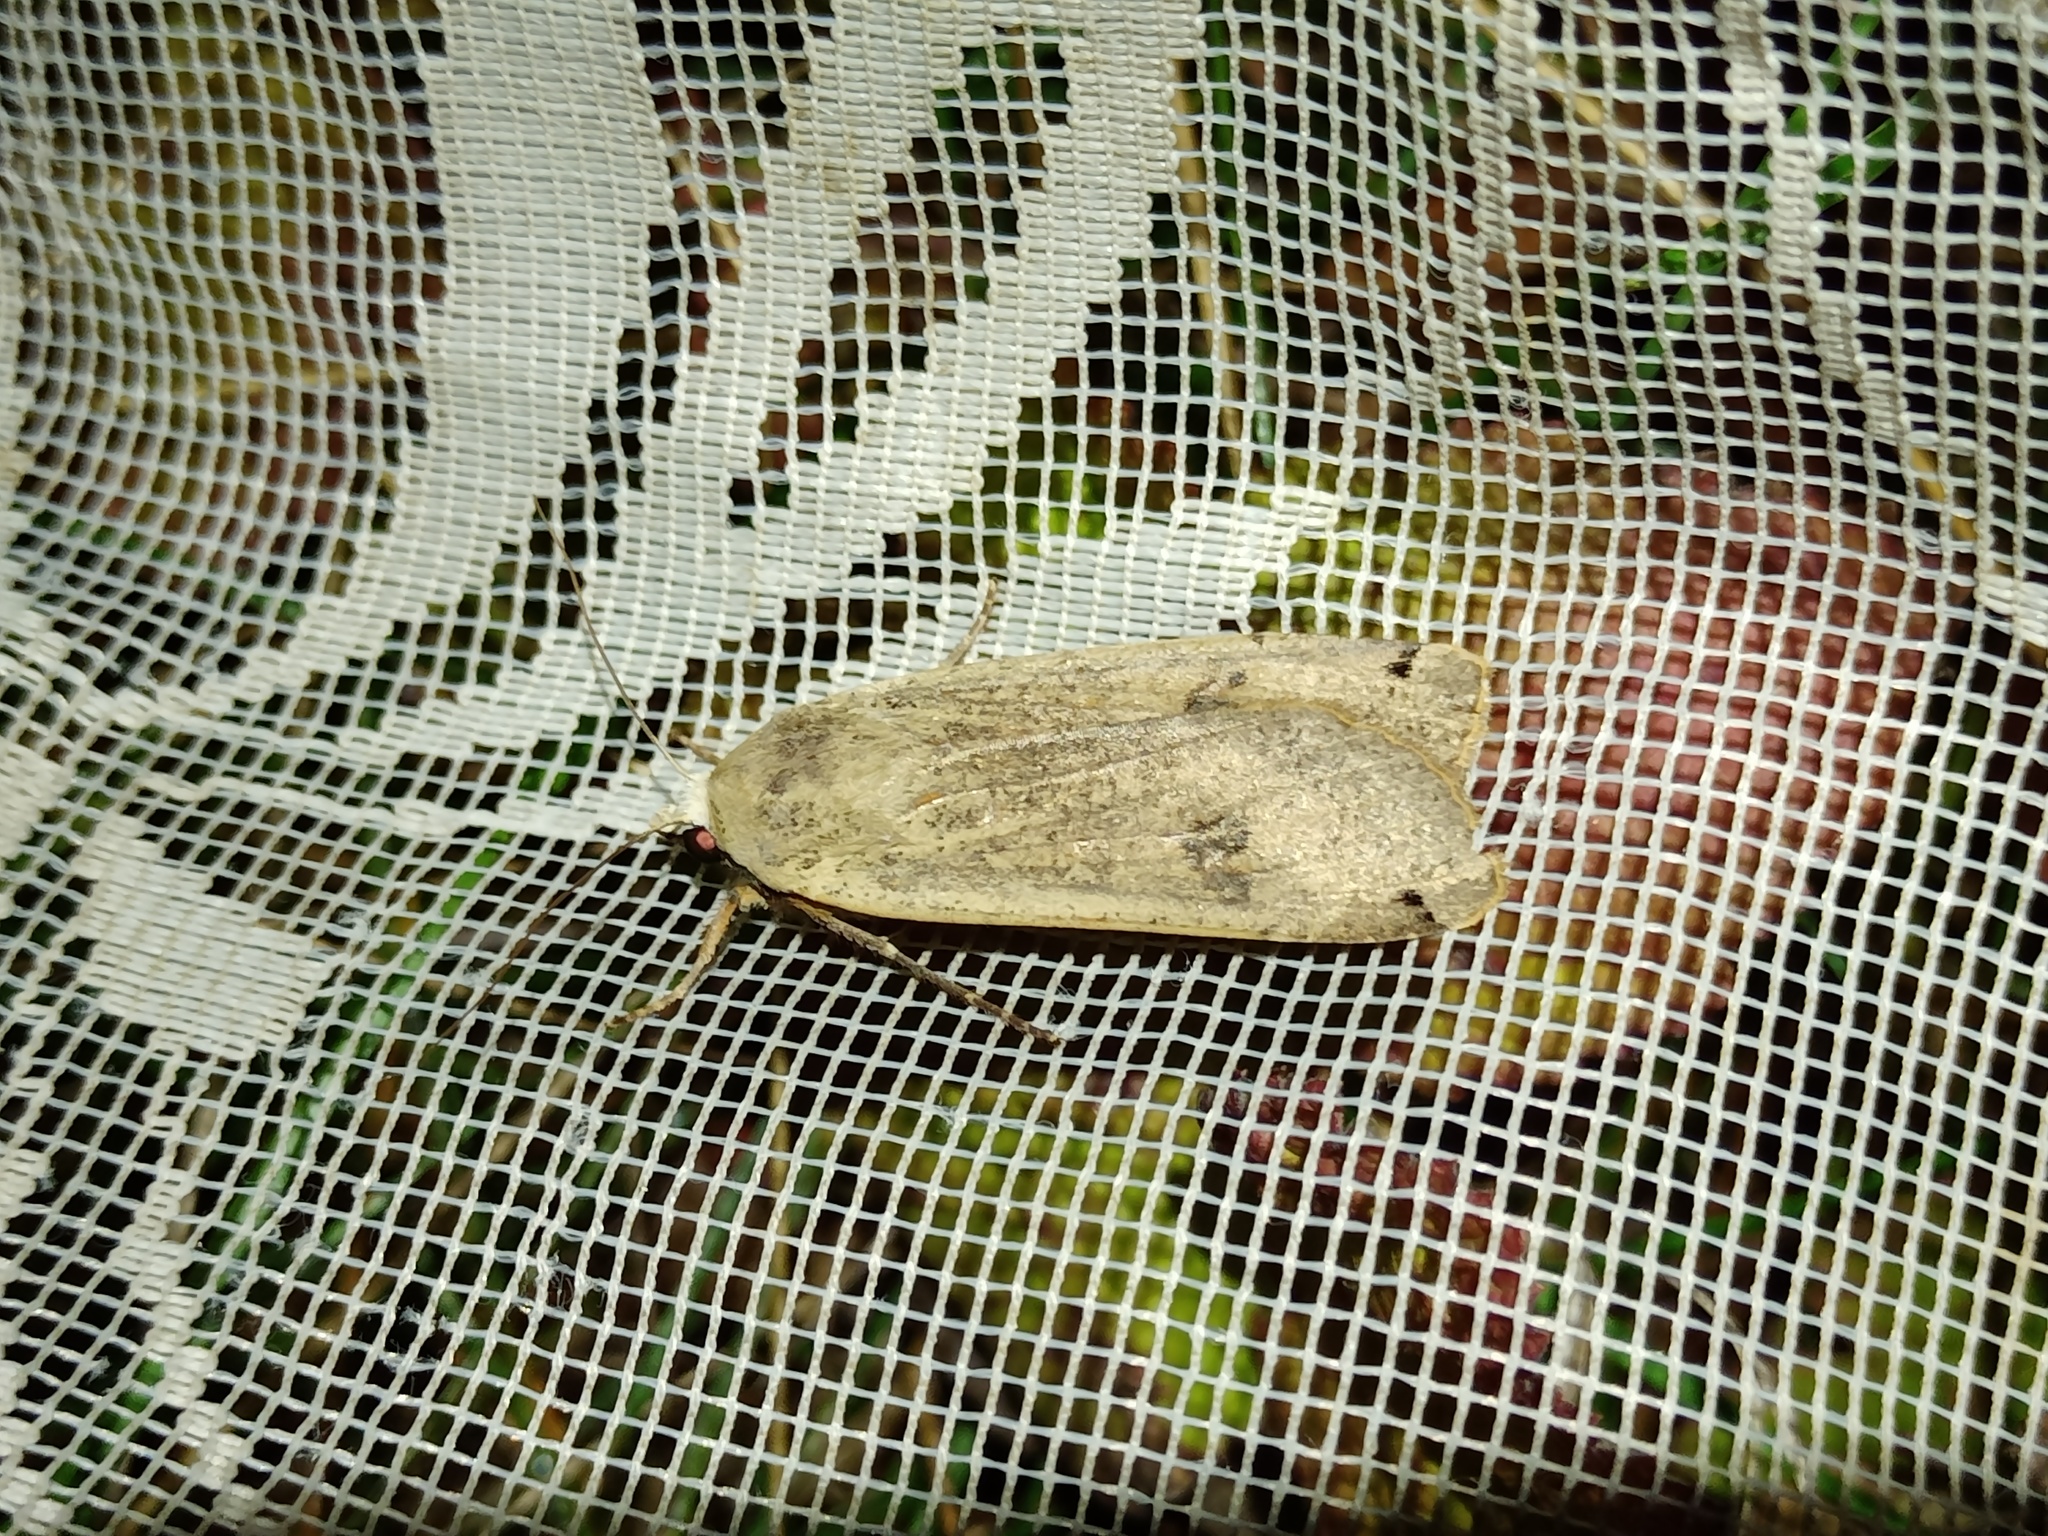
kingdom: Animalia
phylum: Arthropoda
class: Insecta
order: Lepidoptera
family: Noctuidae
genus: Noctua
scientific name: Noctua pronuba
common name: Large yellow underwing
